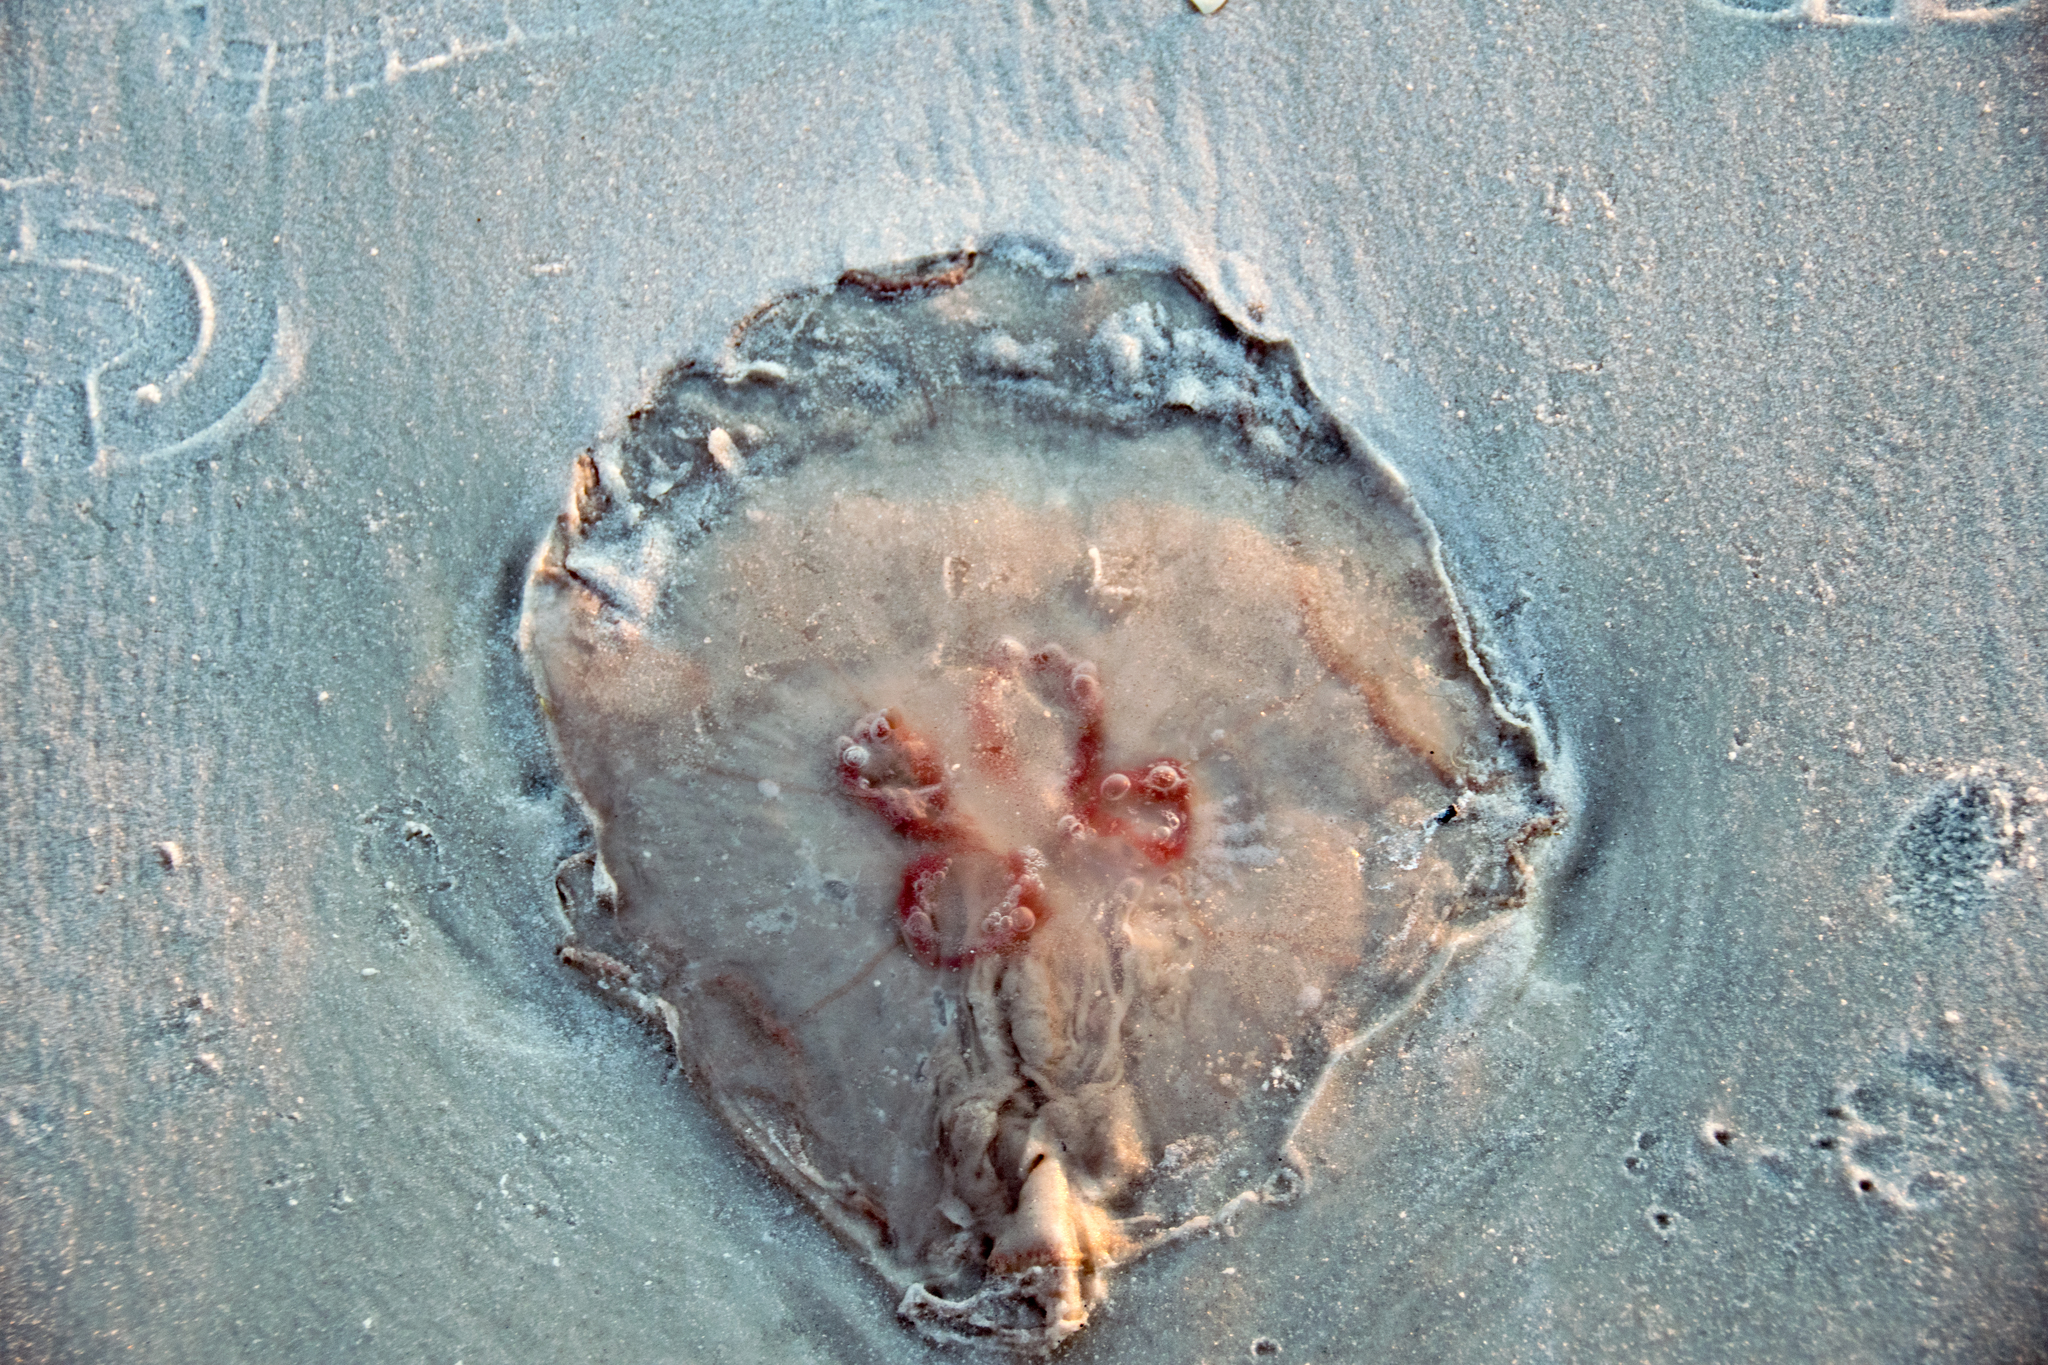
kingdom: Animalia
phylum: Cnidaria
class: Scyphozoa
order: Semaeostomeae
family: Ulmaridae
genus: Aurelia
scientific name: Aurelia marginalis
